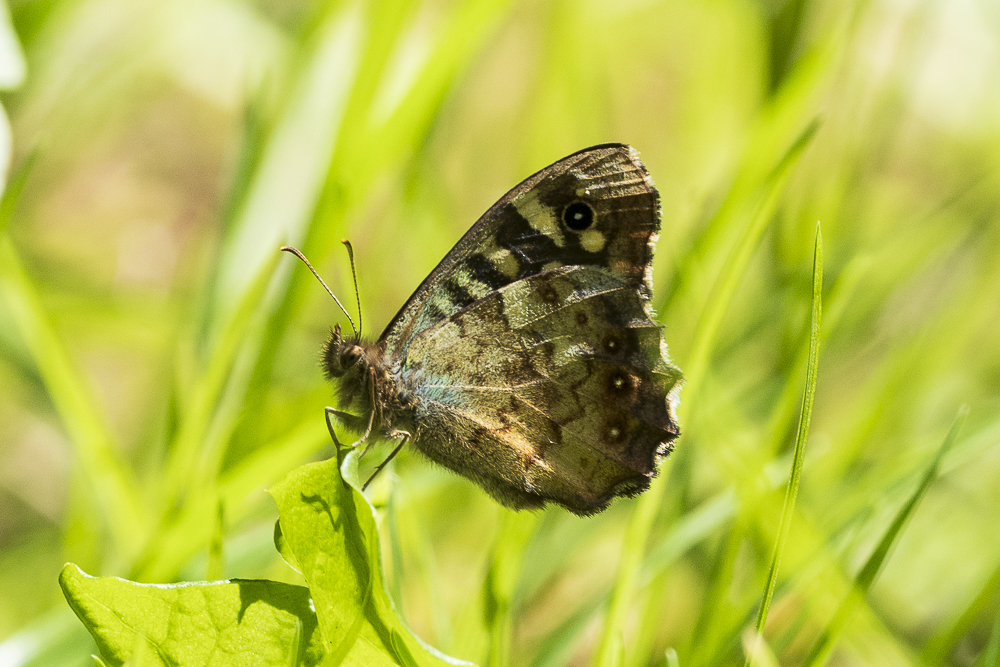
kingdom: Animalia
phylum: Arthropoda
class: Insecta
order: Lepidoptera
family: Nymphalidae
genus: Pararge
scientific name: Pararge aegeria
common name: Speckled wood
